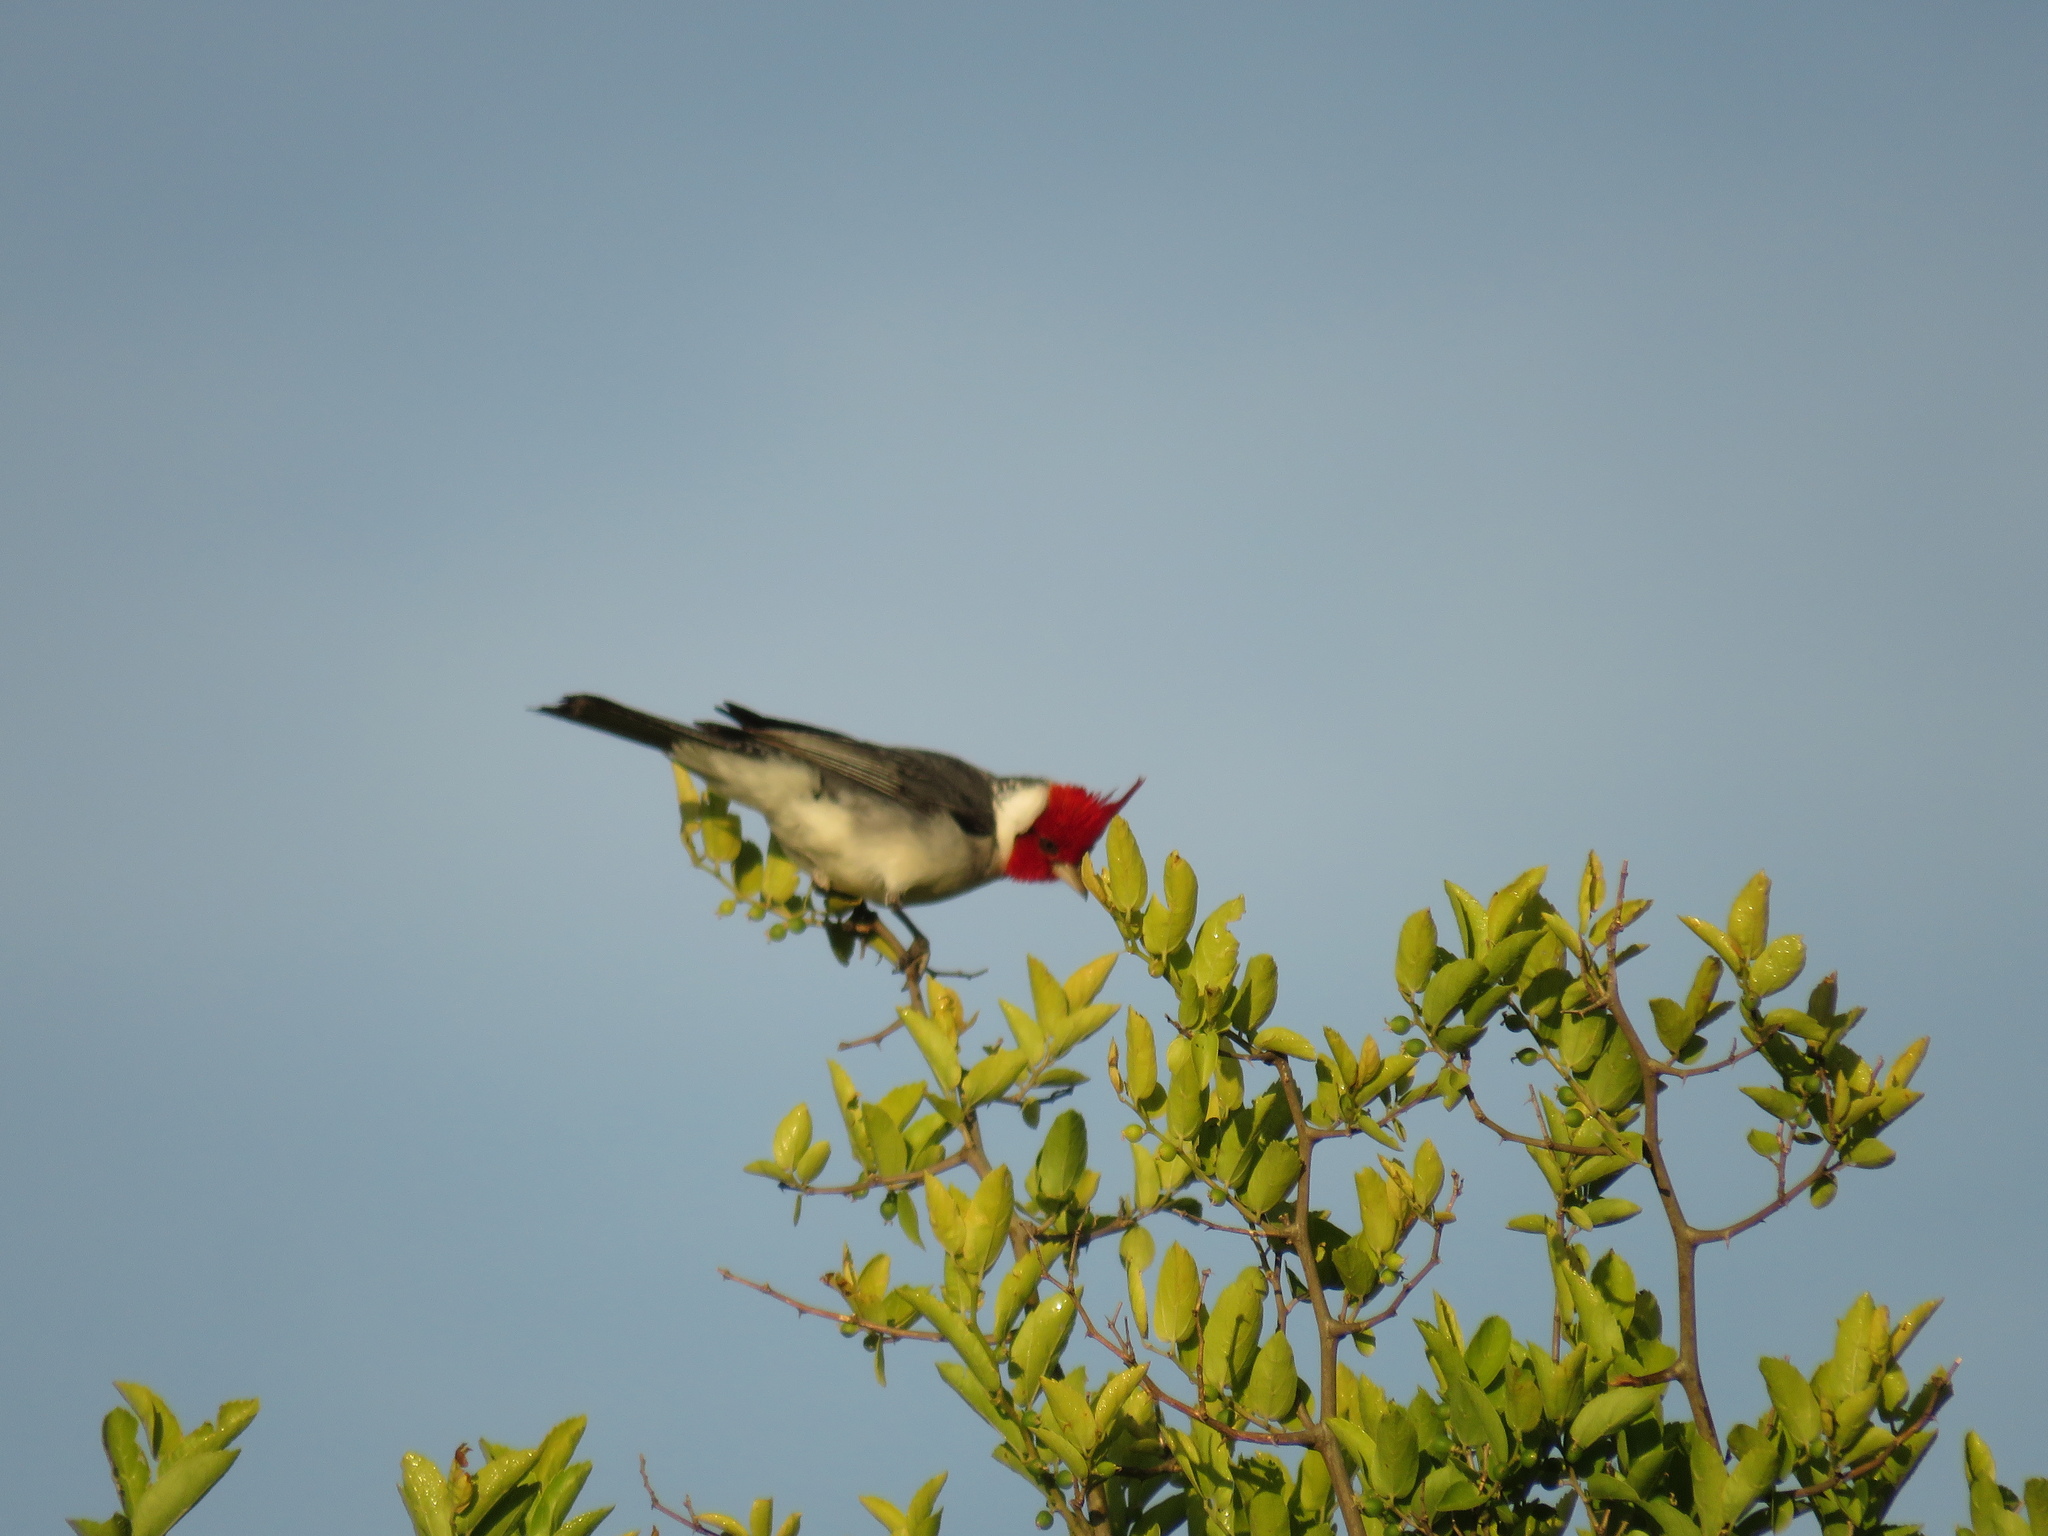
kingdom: Animalia
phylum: Chordata
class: Aves
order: Passeriformes
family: Thraupidae
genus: Paroaria
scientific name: Paroaria coronata
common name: Red-crested cardinal
